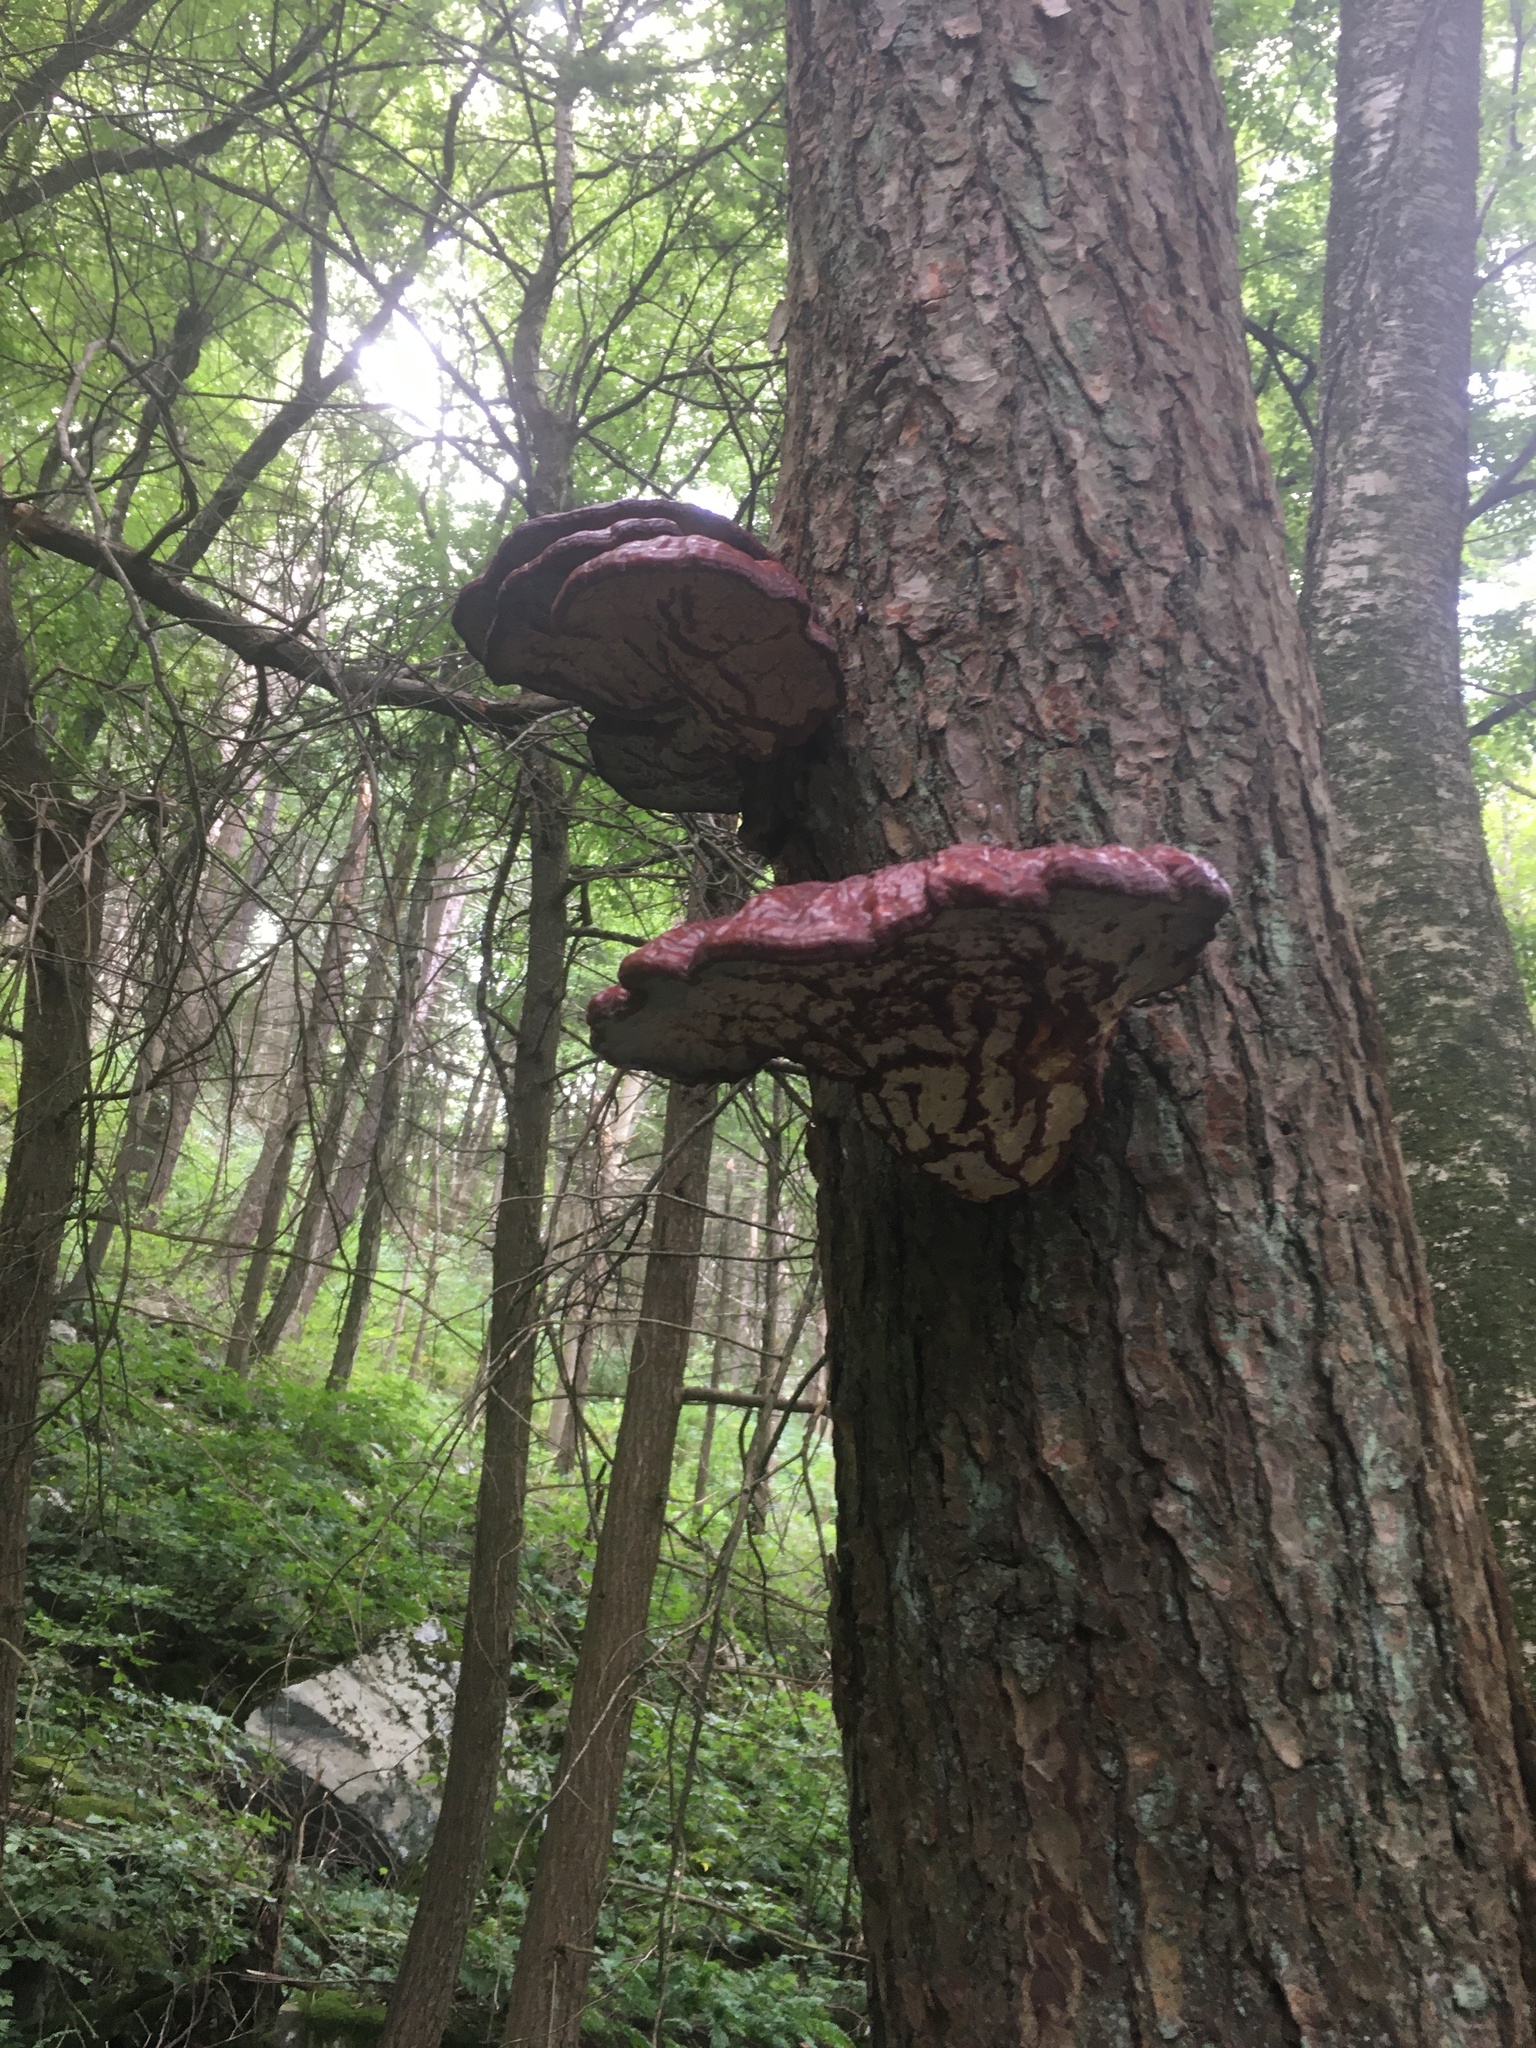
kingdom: Fungi
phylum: Basidiomycota
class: Agaricomycetes
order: Polyporales
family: Polyporaceae
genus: Ganoderma
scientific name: Ganoderma tsugae
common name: Hemlock varnish shelf
